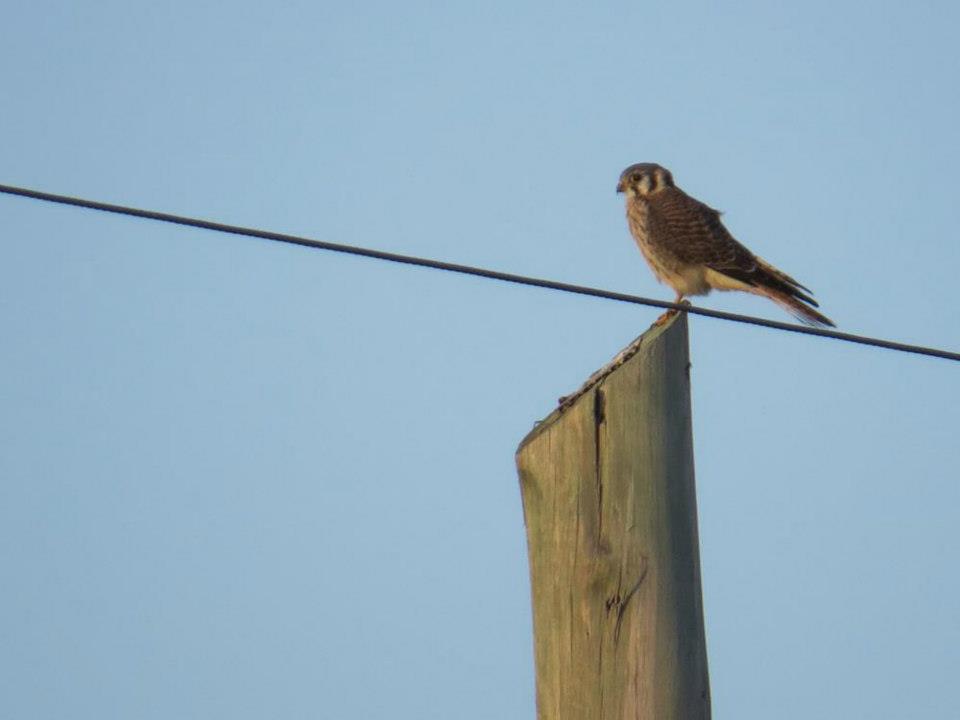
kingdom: Animalia
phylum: Chordata
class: Aves
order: Falconiformes
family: Falconidae
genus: Falco
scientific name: Falco sparverius
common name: American kestrel
